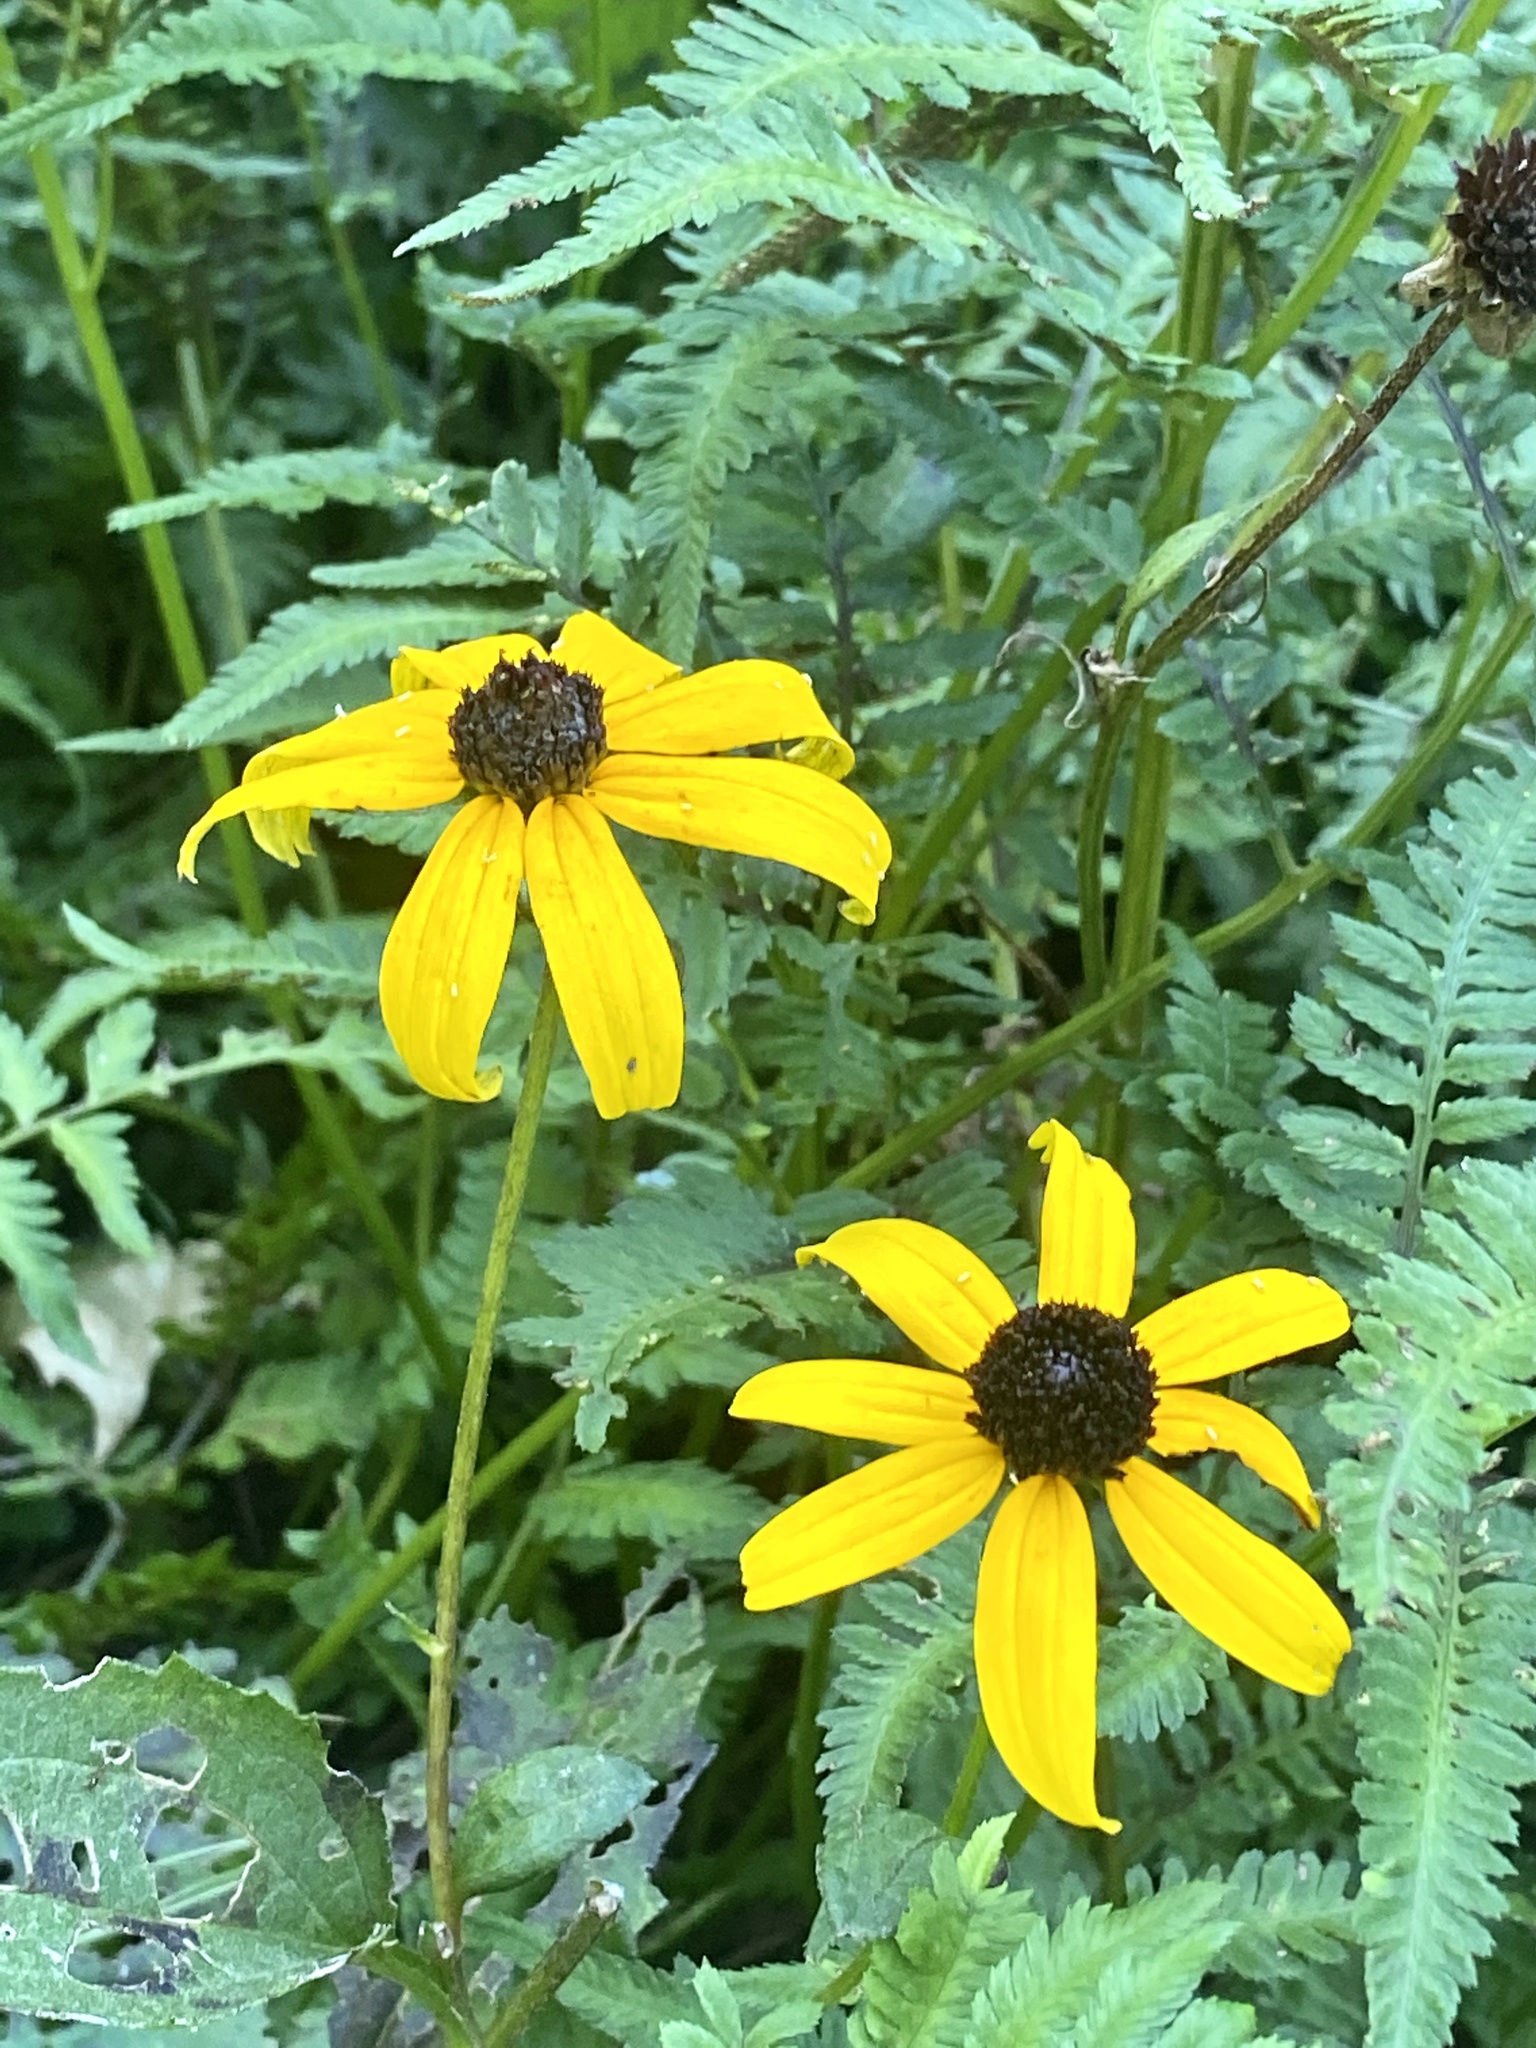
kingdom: Plantae
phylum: Tracheophyta
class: Magnoliopsida
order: Asterales
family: Asteraceae
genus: Rudbeckia
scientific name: Rudbeckia hirta
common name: Black-eyed-susan
